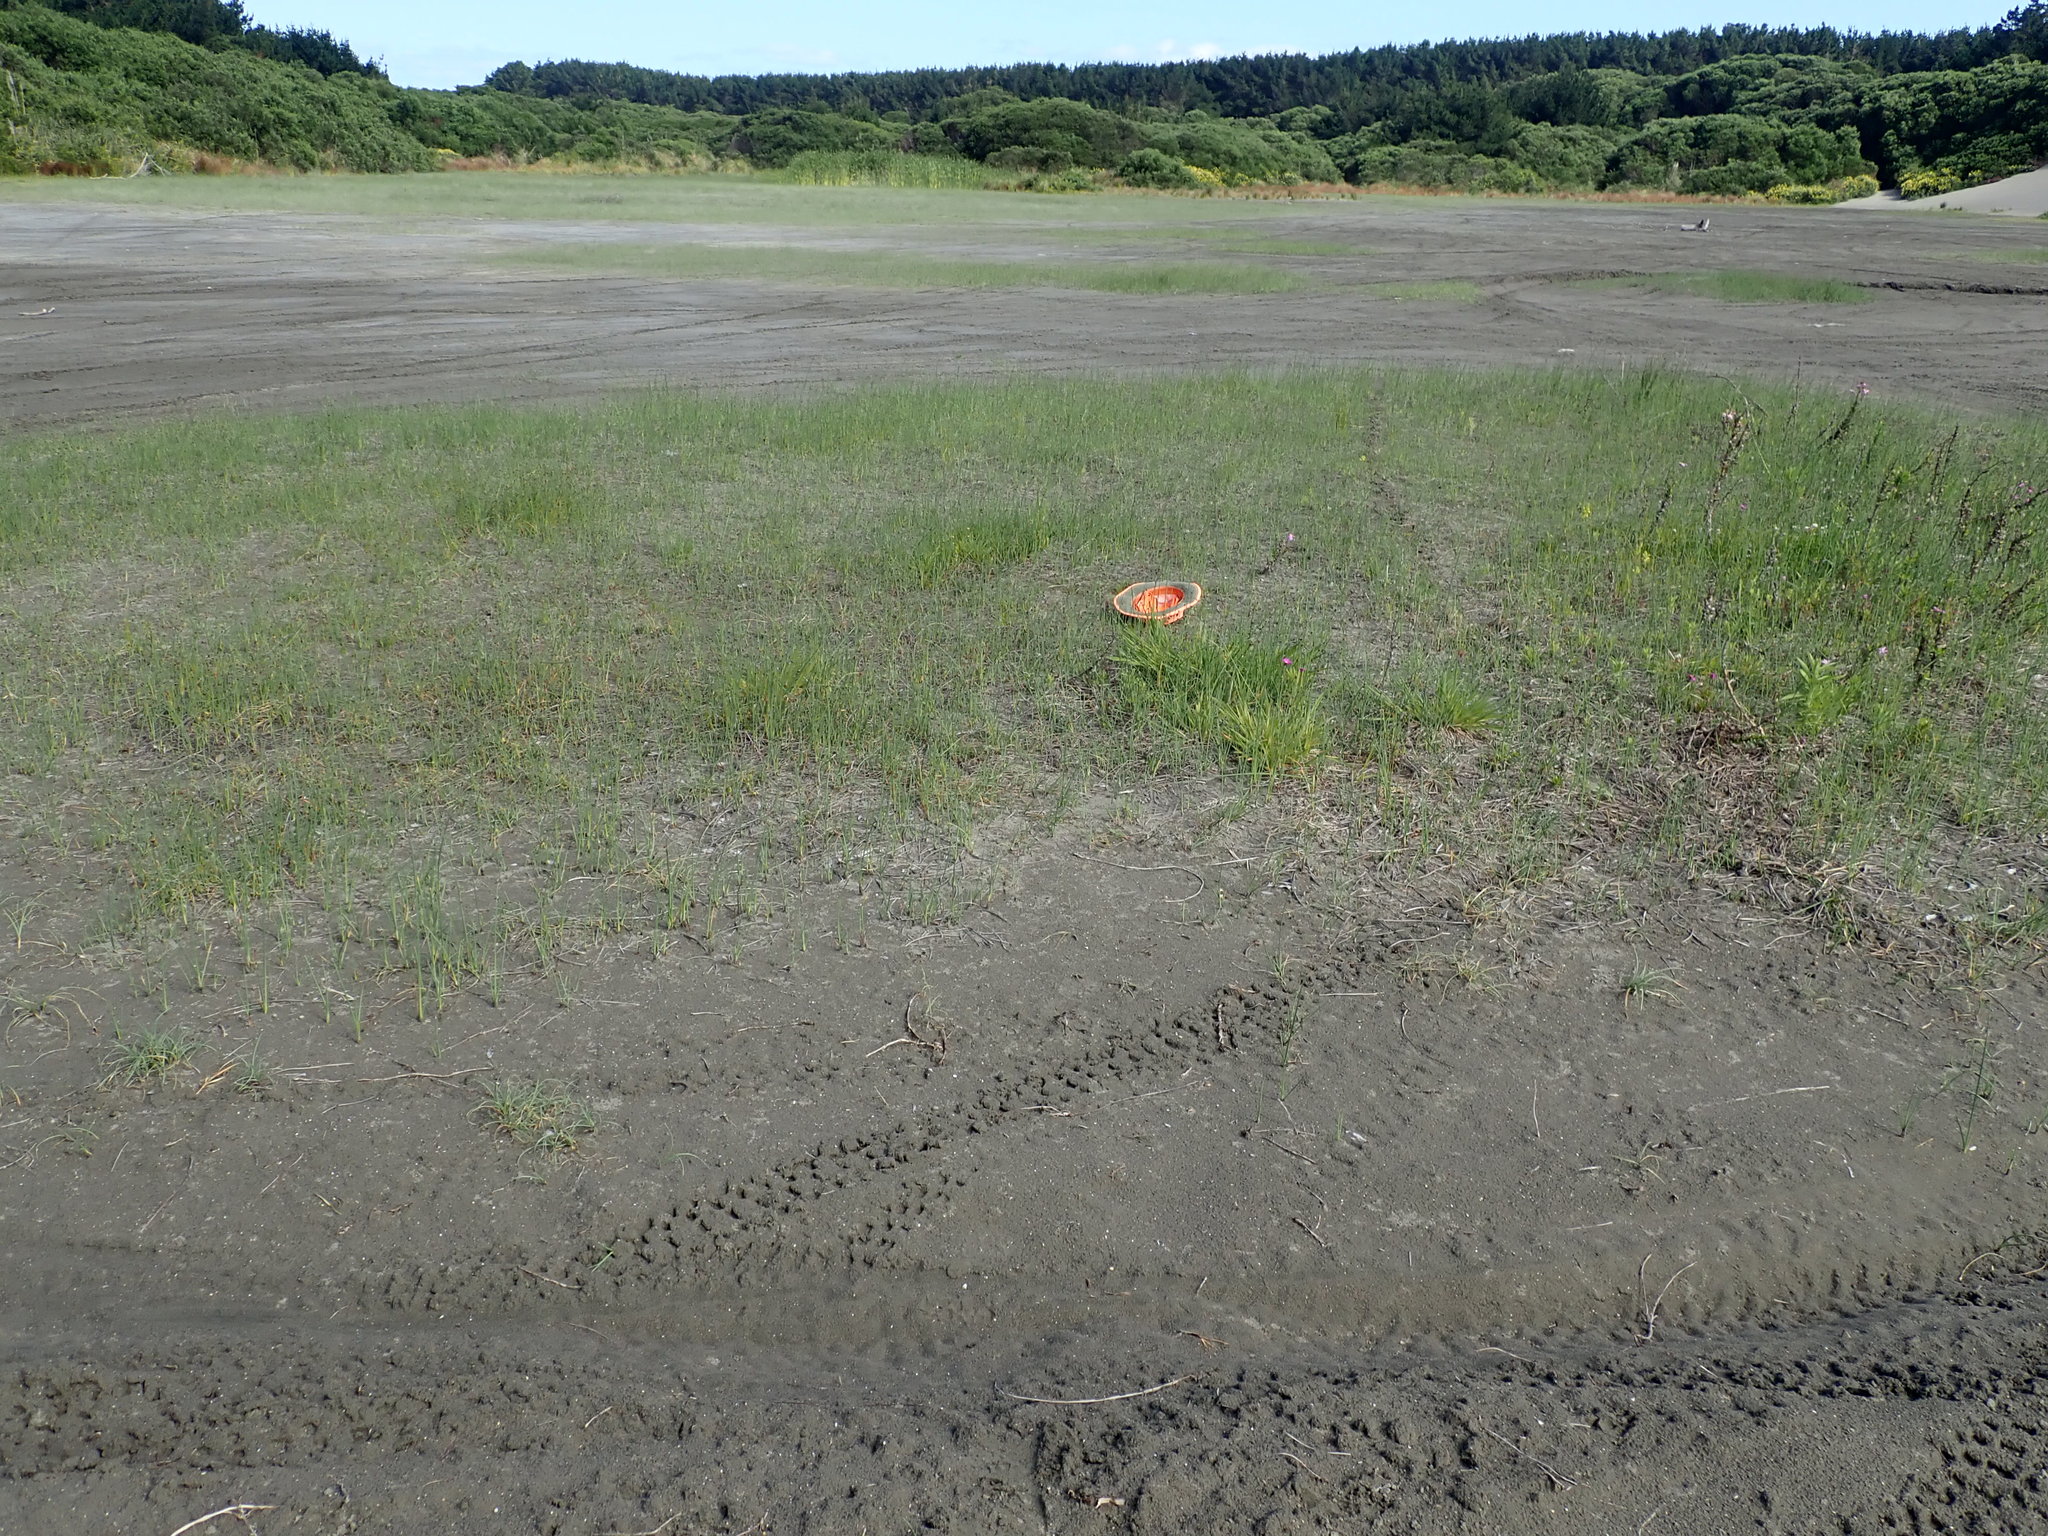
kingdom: Plantae
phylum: Tracheophyta
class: Liliopsida
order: Poales
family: Cyperaceae
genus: Isolepis
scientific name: Isolepis basilaris
